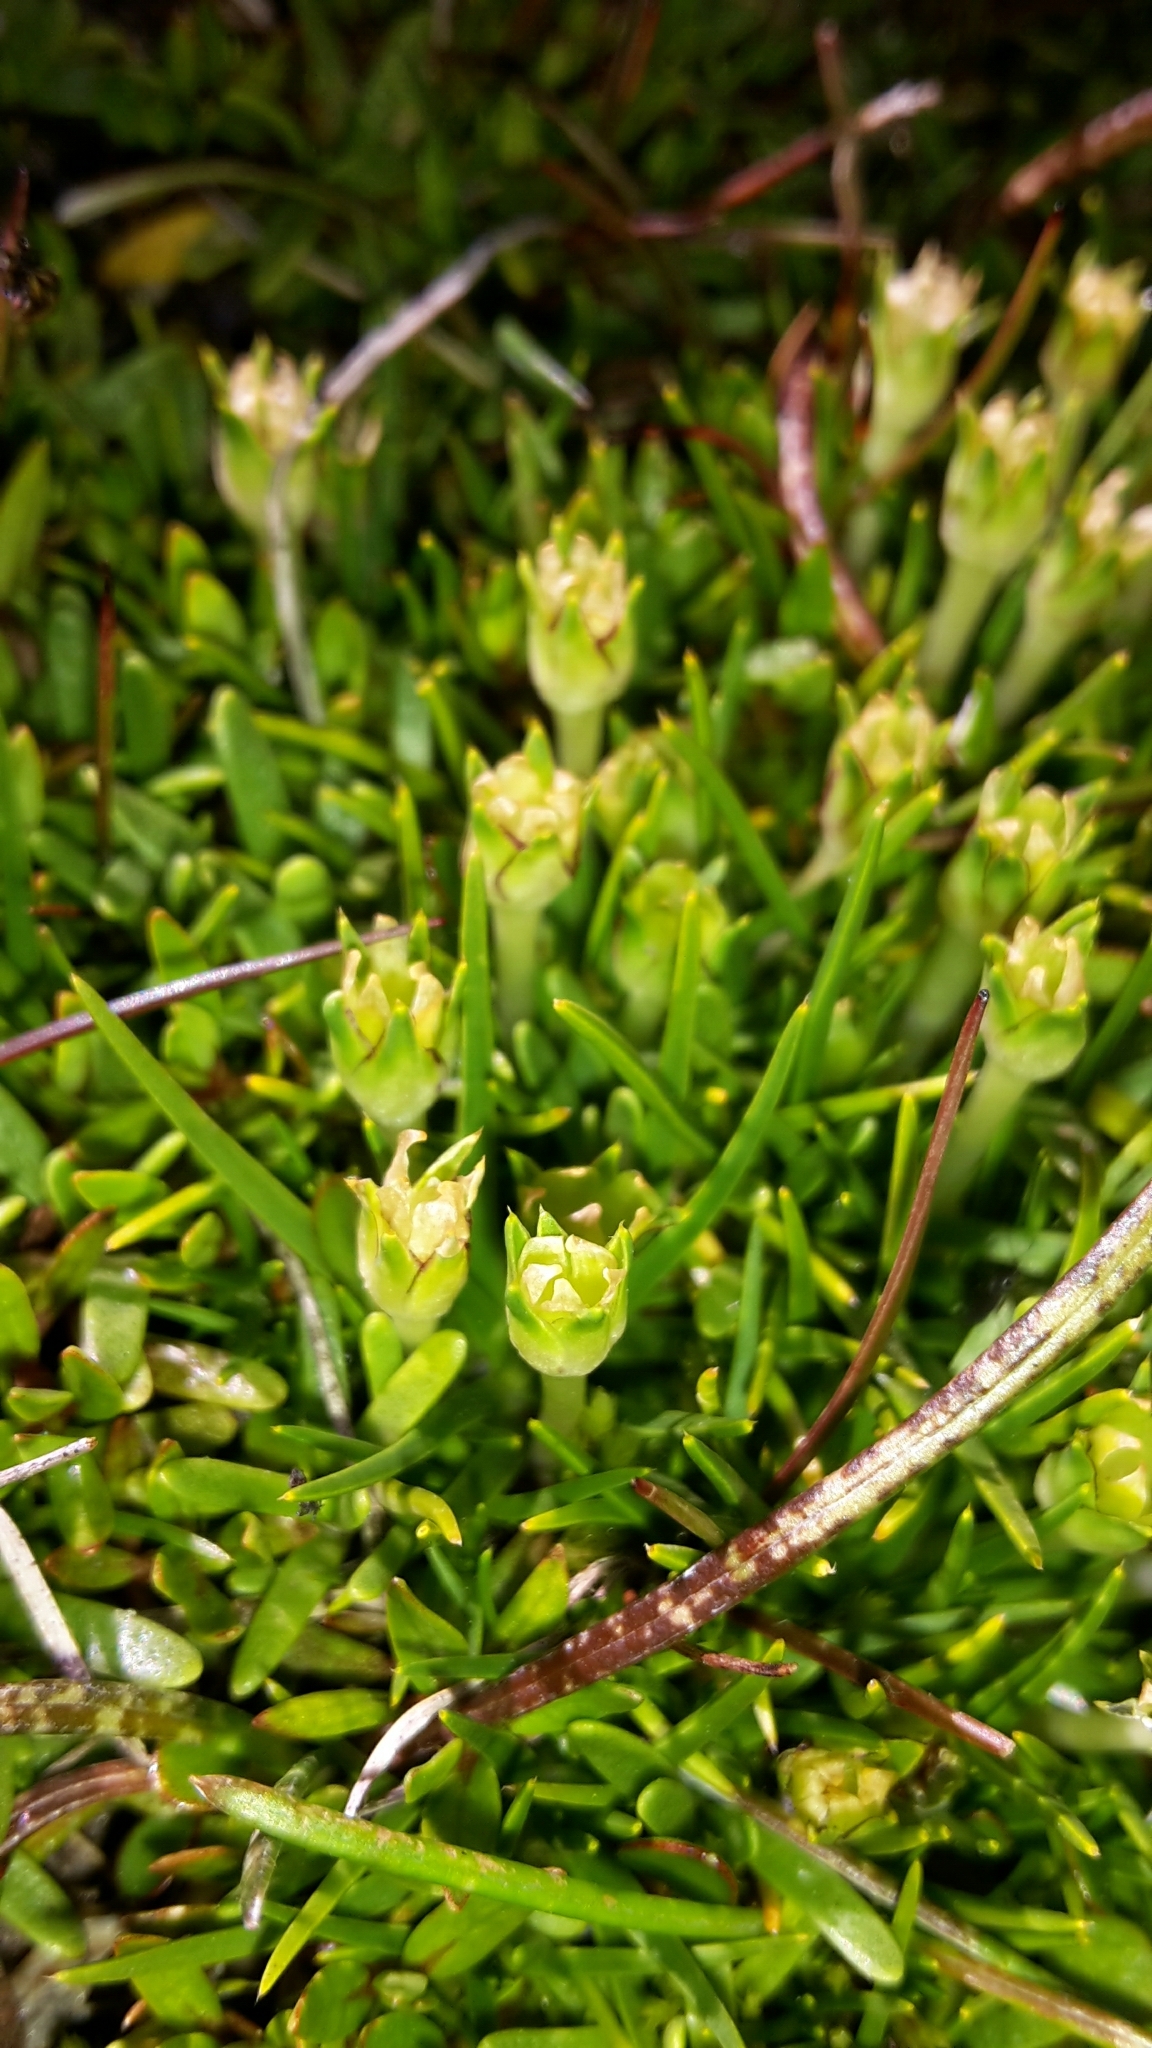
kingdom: Plantae
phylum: Tracheophyta
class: Magnoliopsida
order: Caryophyllales
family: Caryophyllaceae
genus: Colobanthus
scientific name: Colobanthus apetalus
